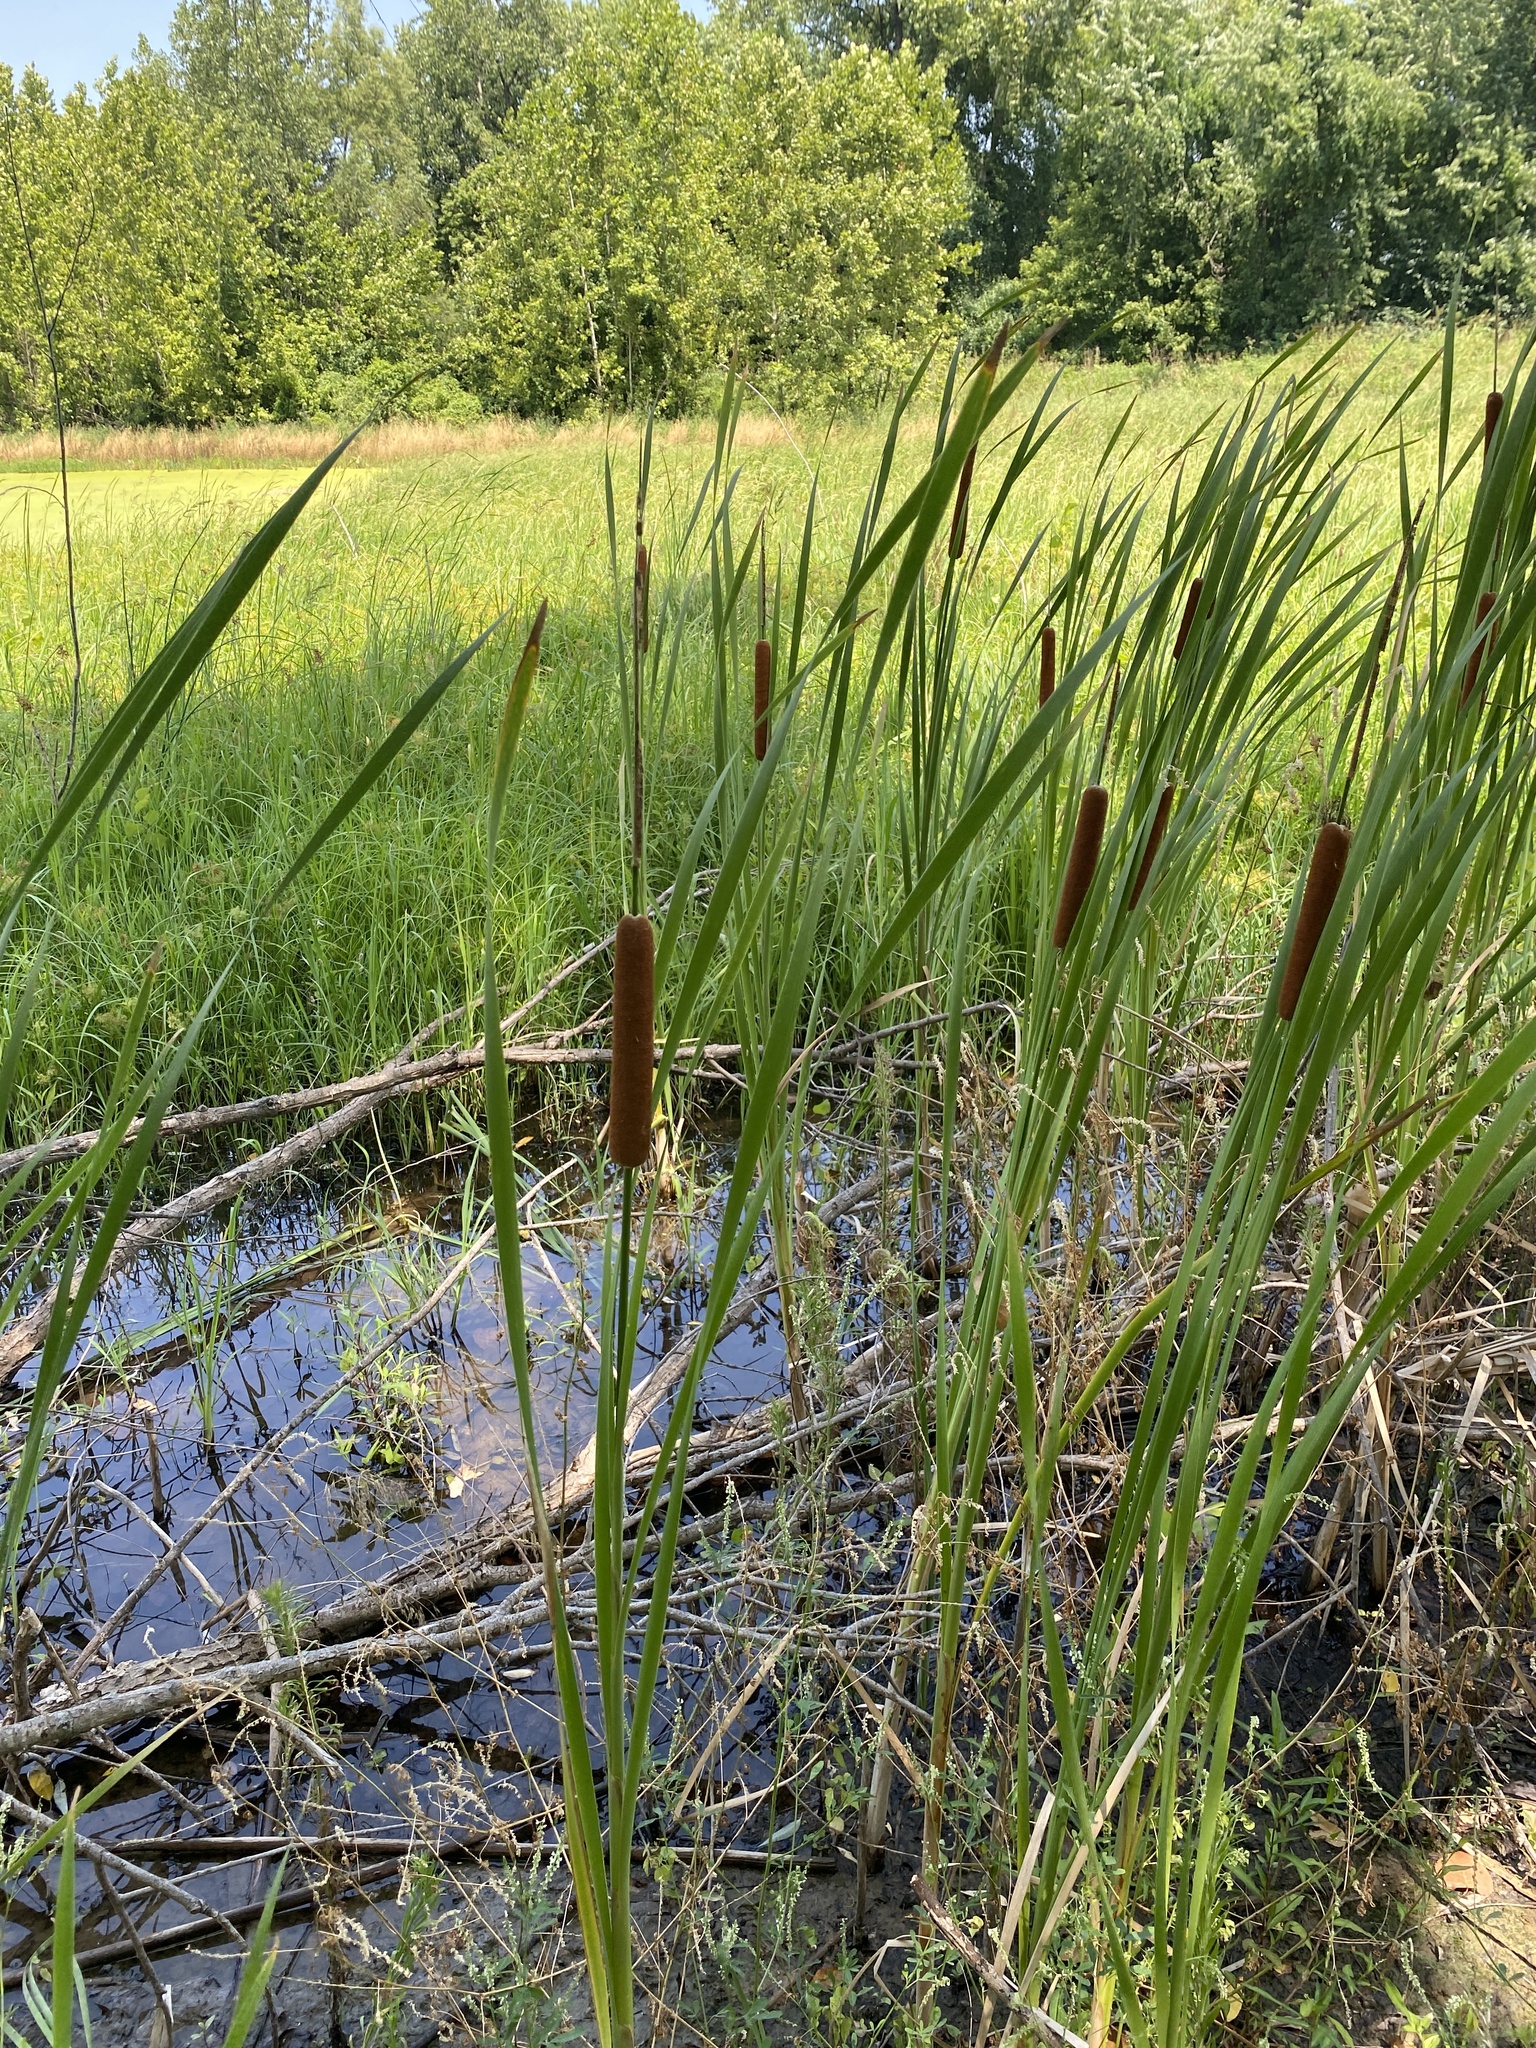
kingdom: Plantae
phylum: Tracheophyta
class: Liliopsida
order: Poales
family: Typhaceae
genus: Typha
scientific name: Typha angustifolia
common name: Lesser bulrush
